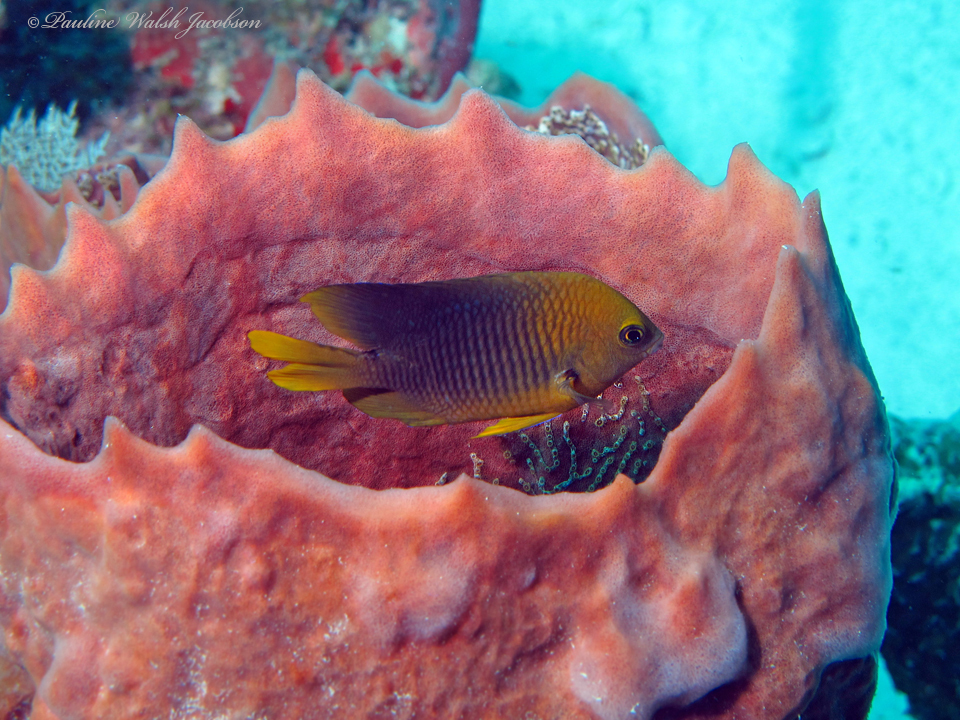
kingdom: Animalia
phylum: Chordata
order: Perciformes
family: Pomacentridae
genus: Stegastes
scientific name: Stegastes planifrons
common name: Threespot damselfish
